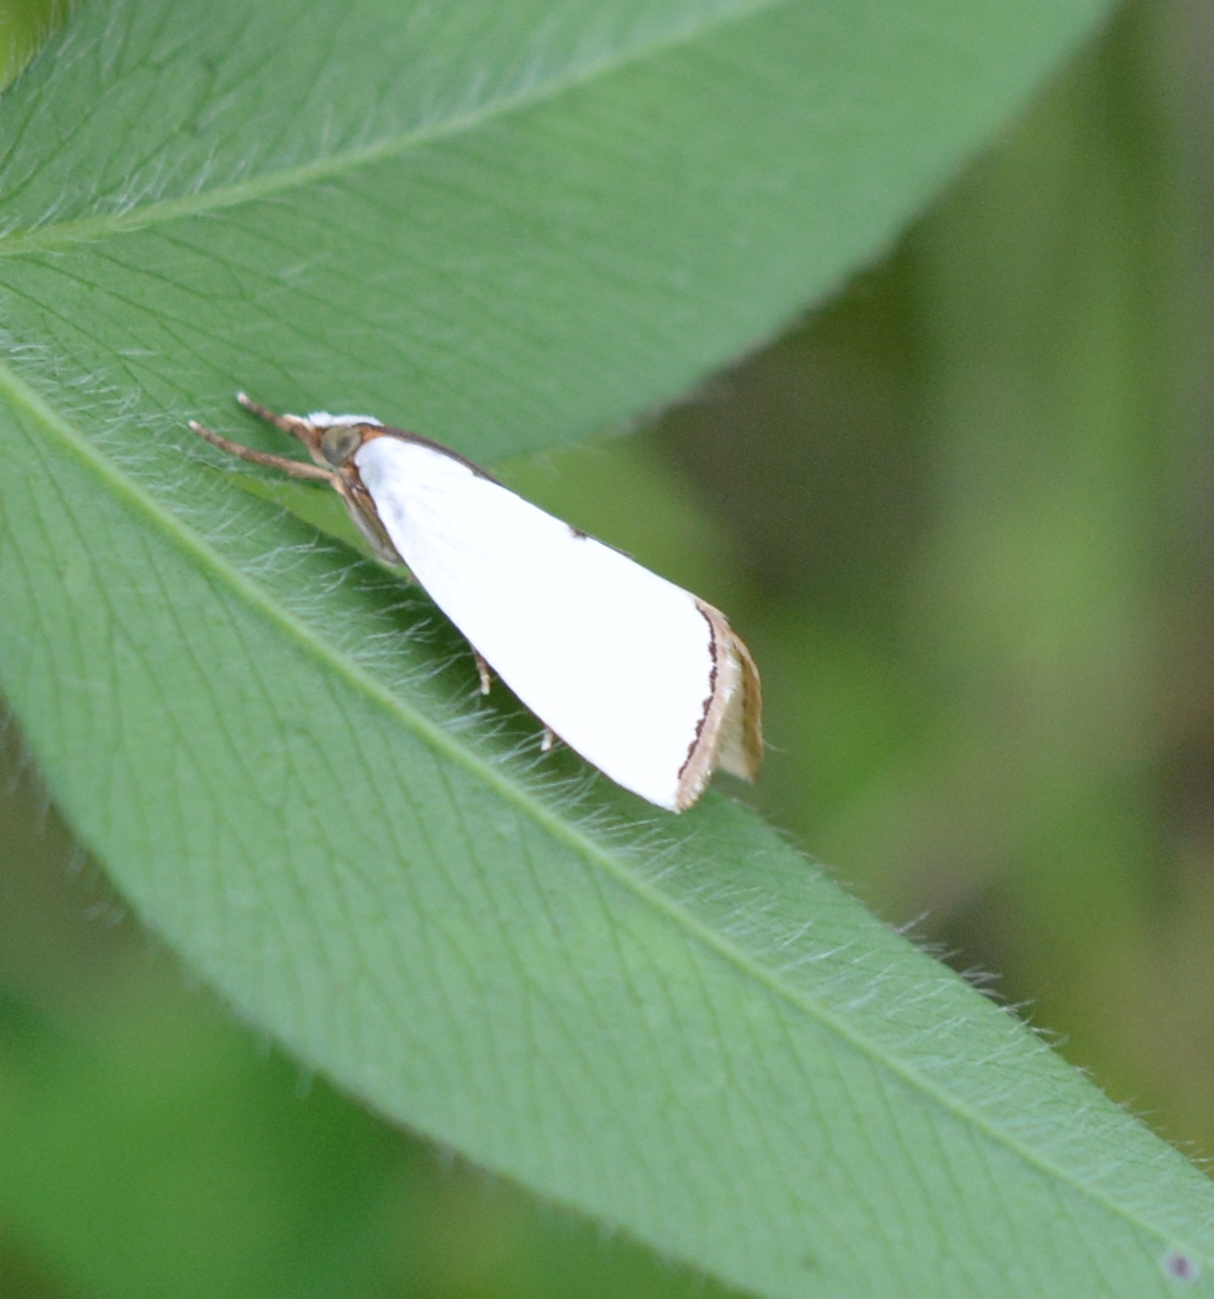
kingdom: Animalia
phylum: Arthropoda
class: Insecta
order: Lepidoptera
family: Crambidae
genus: Argyria
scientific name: Argyria nivalis
